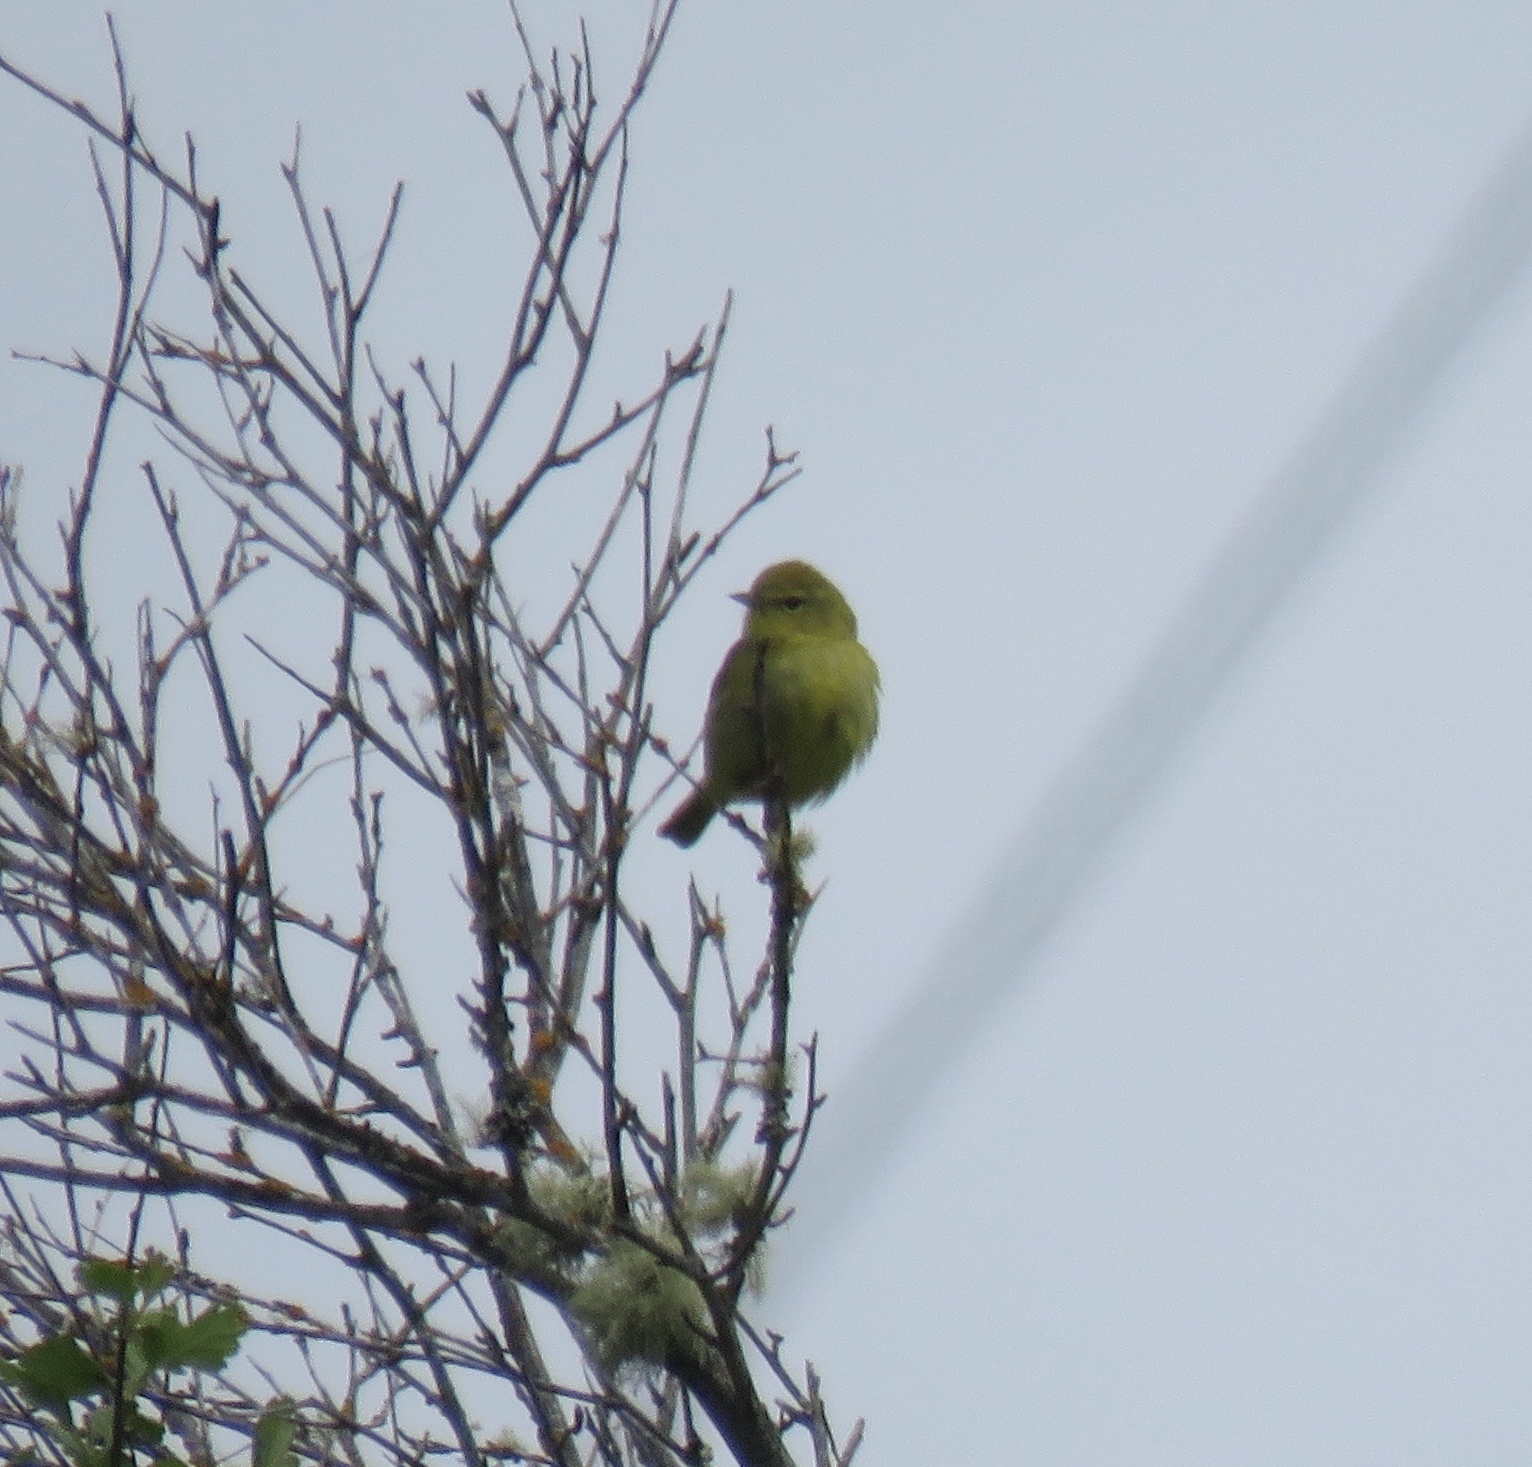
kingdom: Animalia
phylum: Chordata
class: Aves
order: Passeriformes
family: Parulidae
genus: Leiothlypis
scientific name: Leiothlypis celata
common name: Orange-crowned warbler
